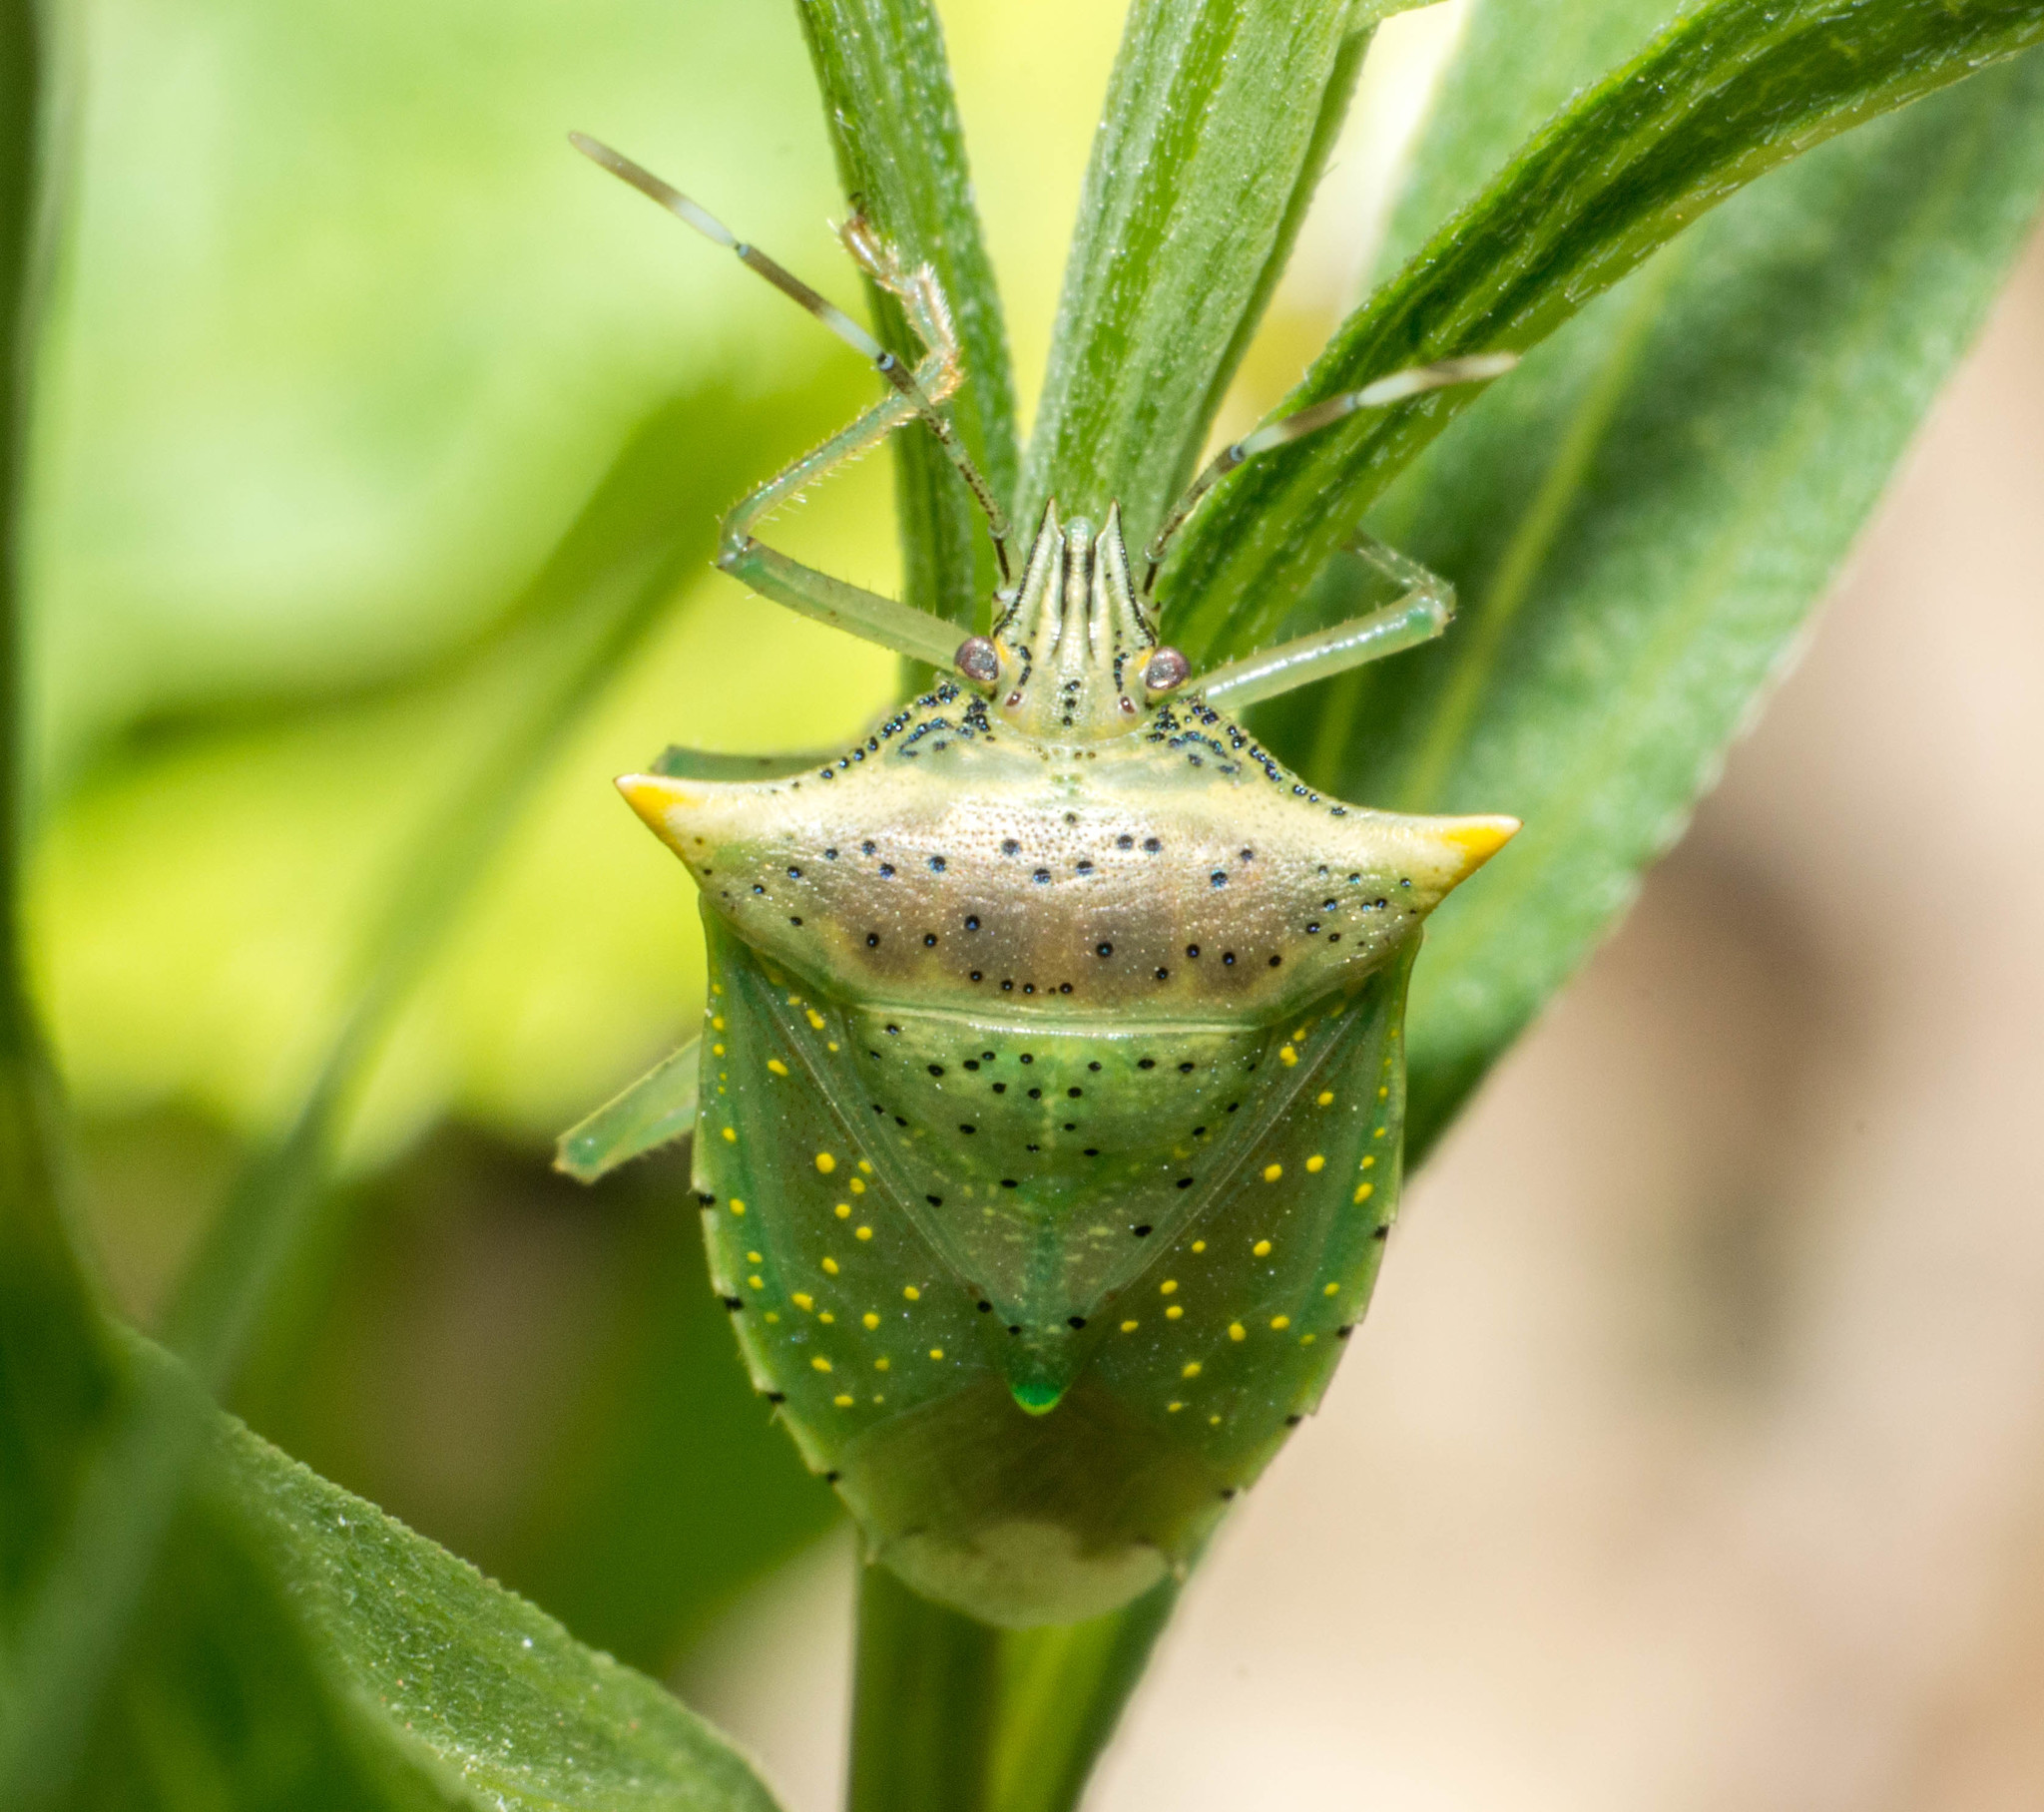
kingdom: Animalia
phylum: Arthropoda
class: Insecta
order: Hemiptera
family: Pentatomidae
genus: Arvelius
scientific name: Arvelius albopunctatus
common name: Tomato stink bug
